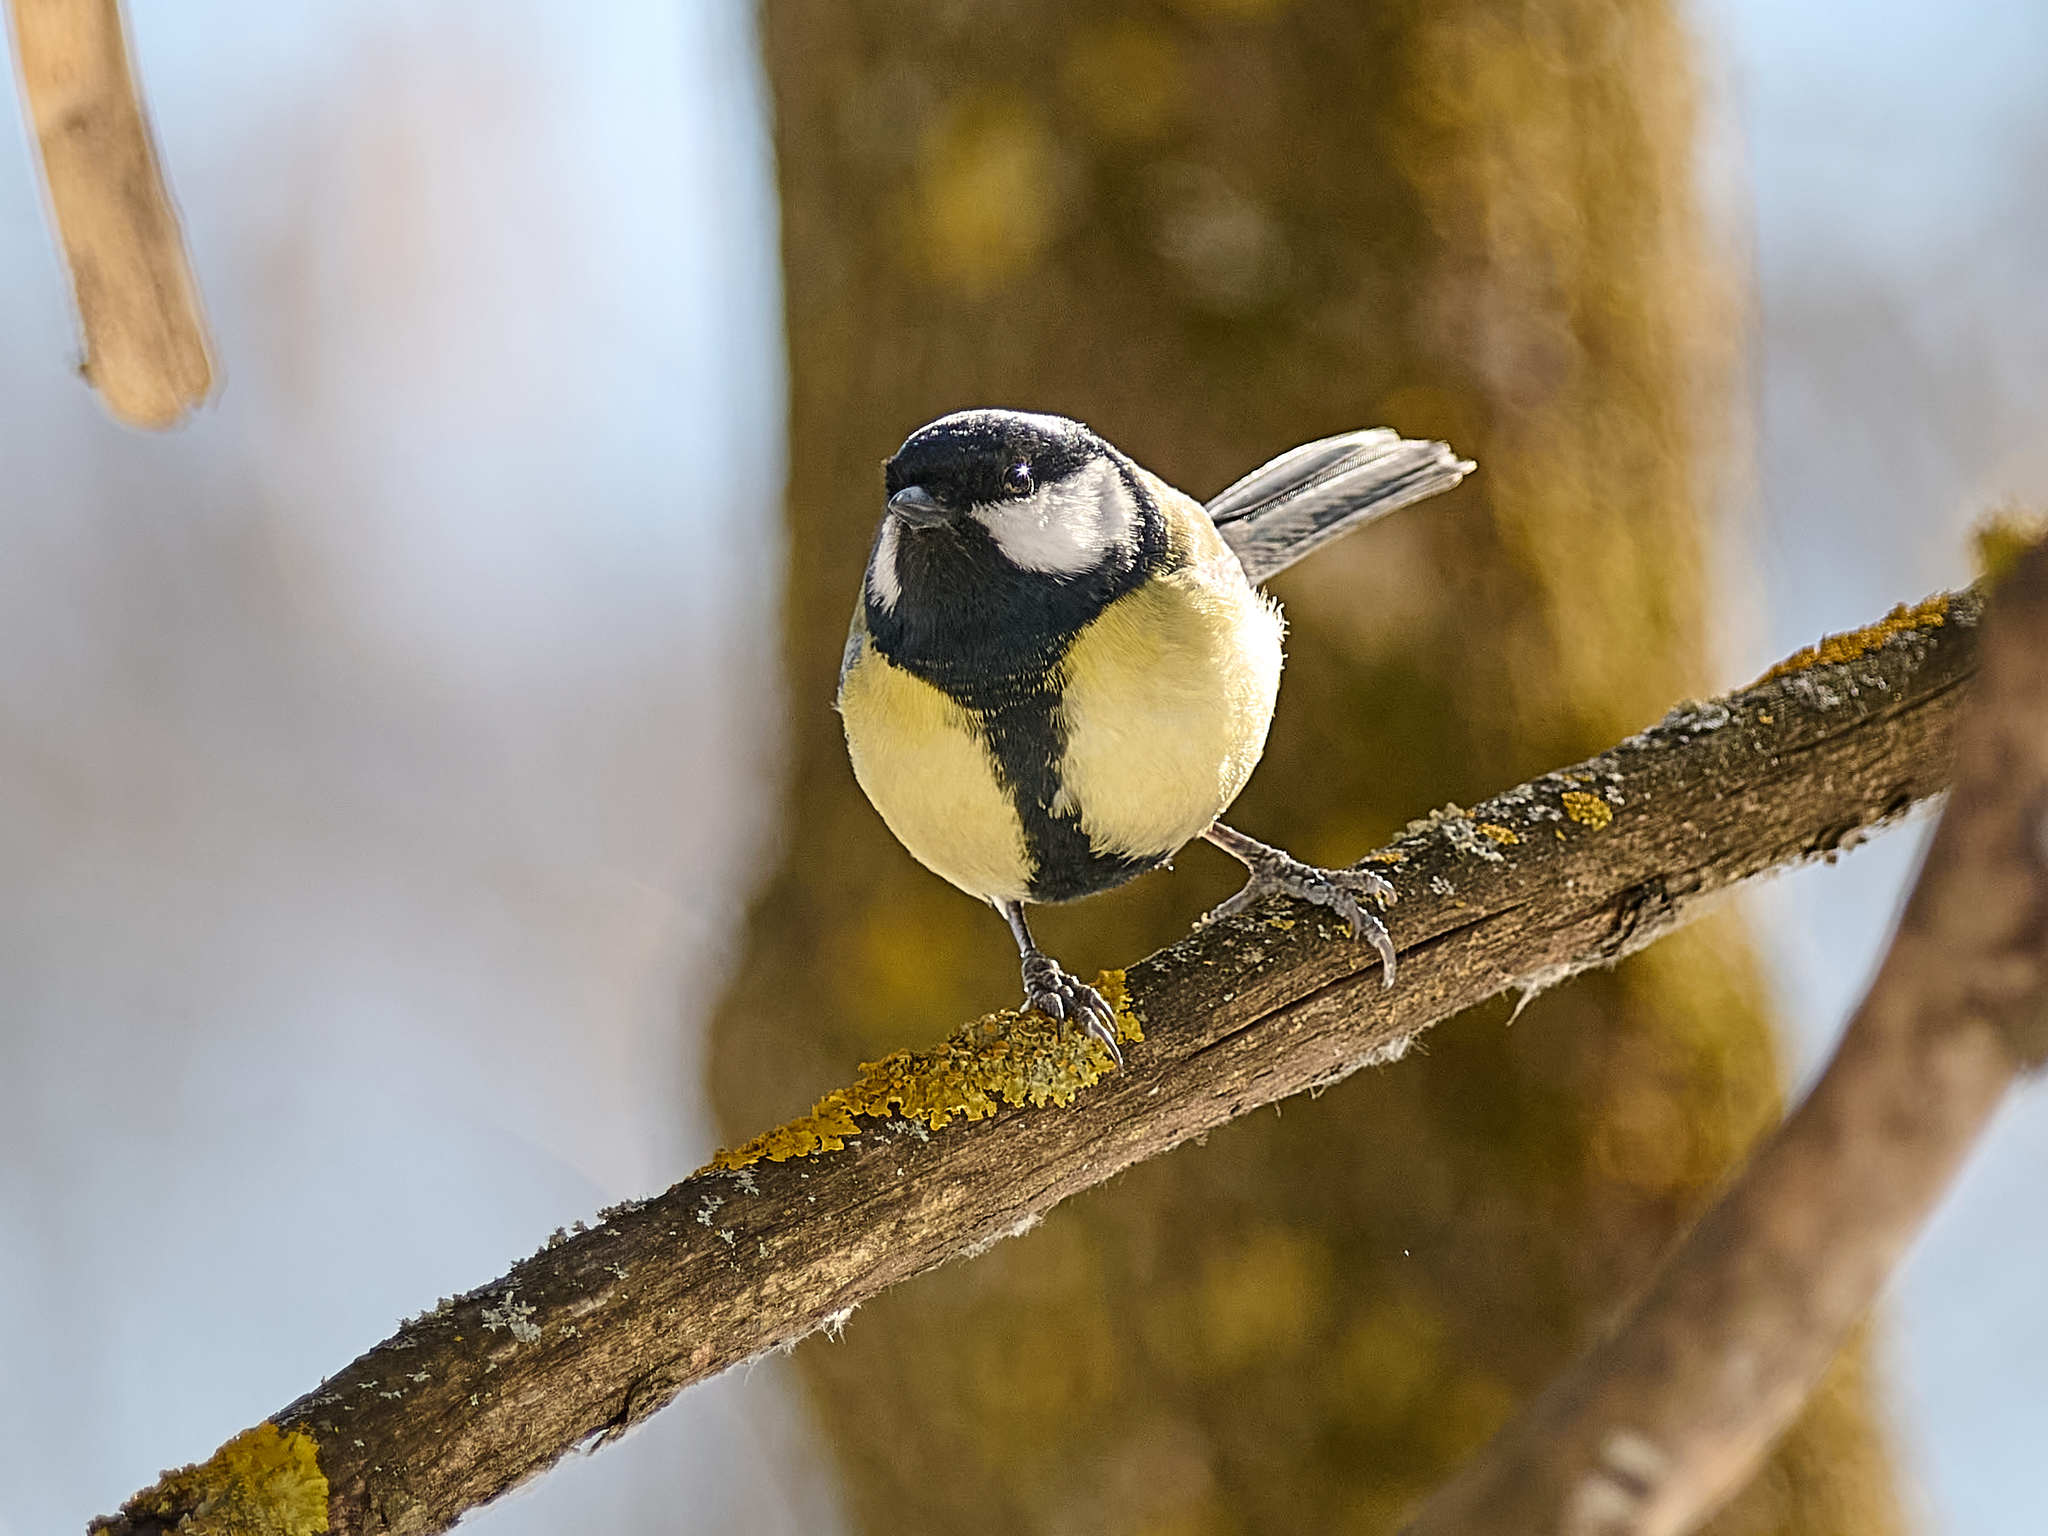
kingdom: Animalia
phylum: Chordata
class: Aves
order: Passeriformes
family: Paridae
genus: Parus
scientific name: Parus major
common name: Great tit
